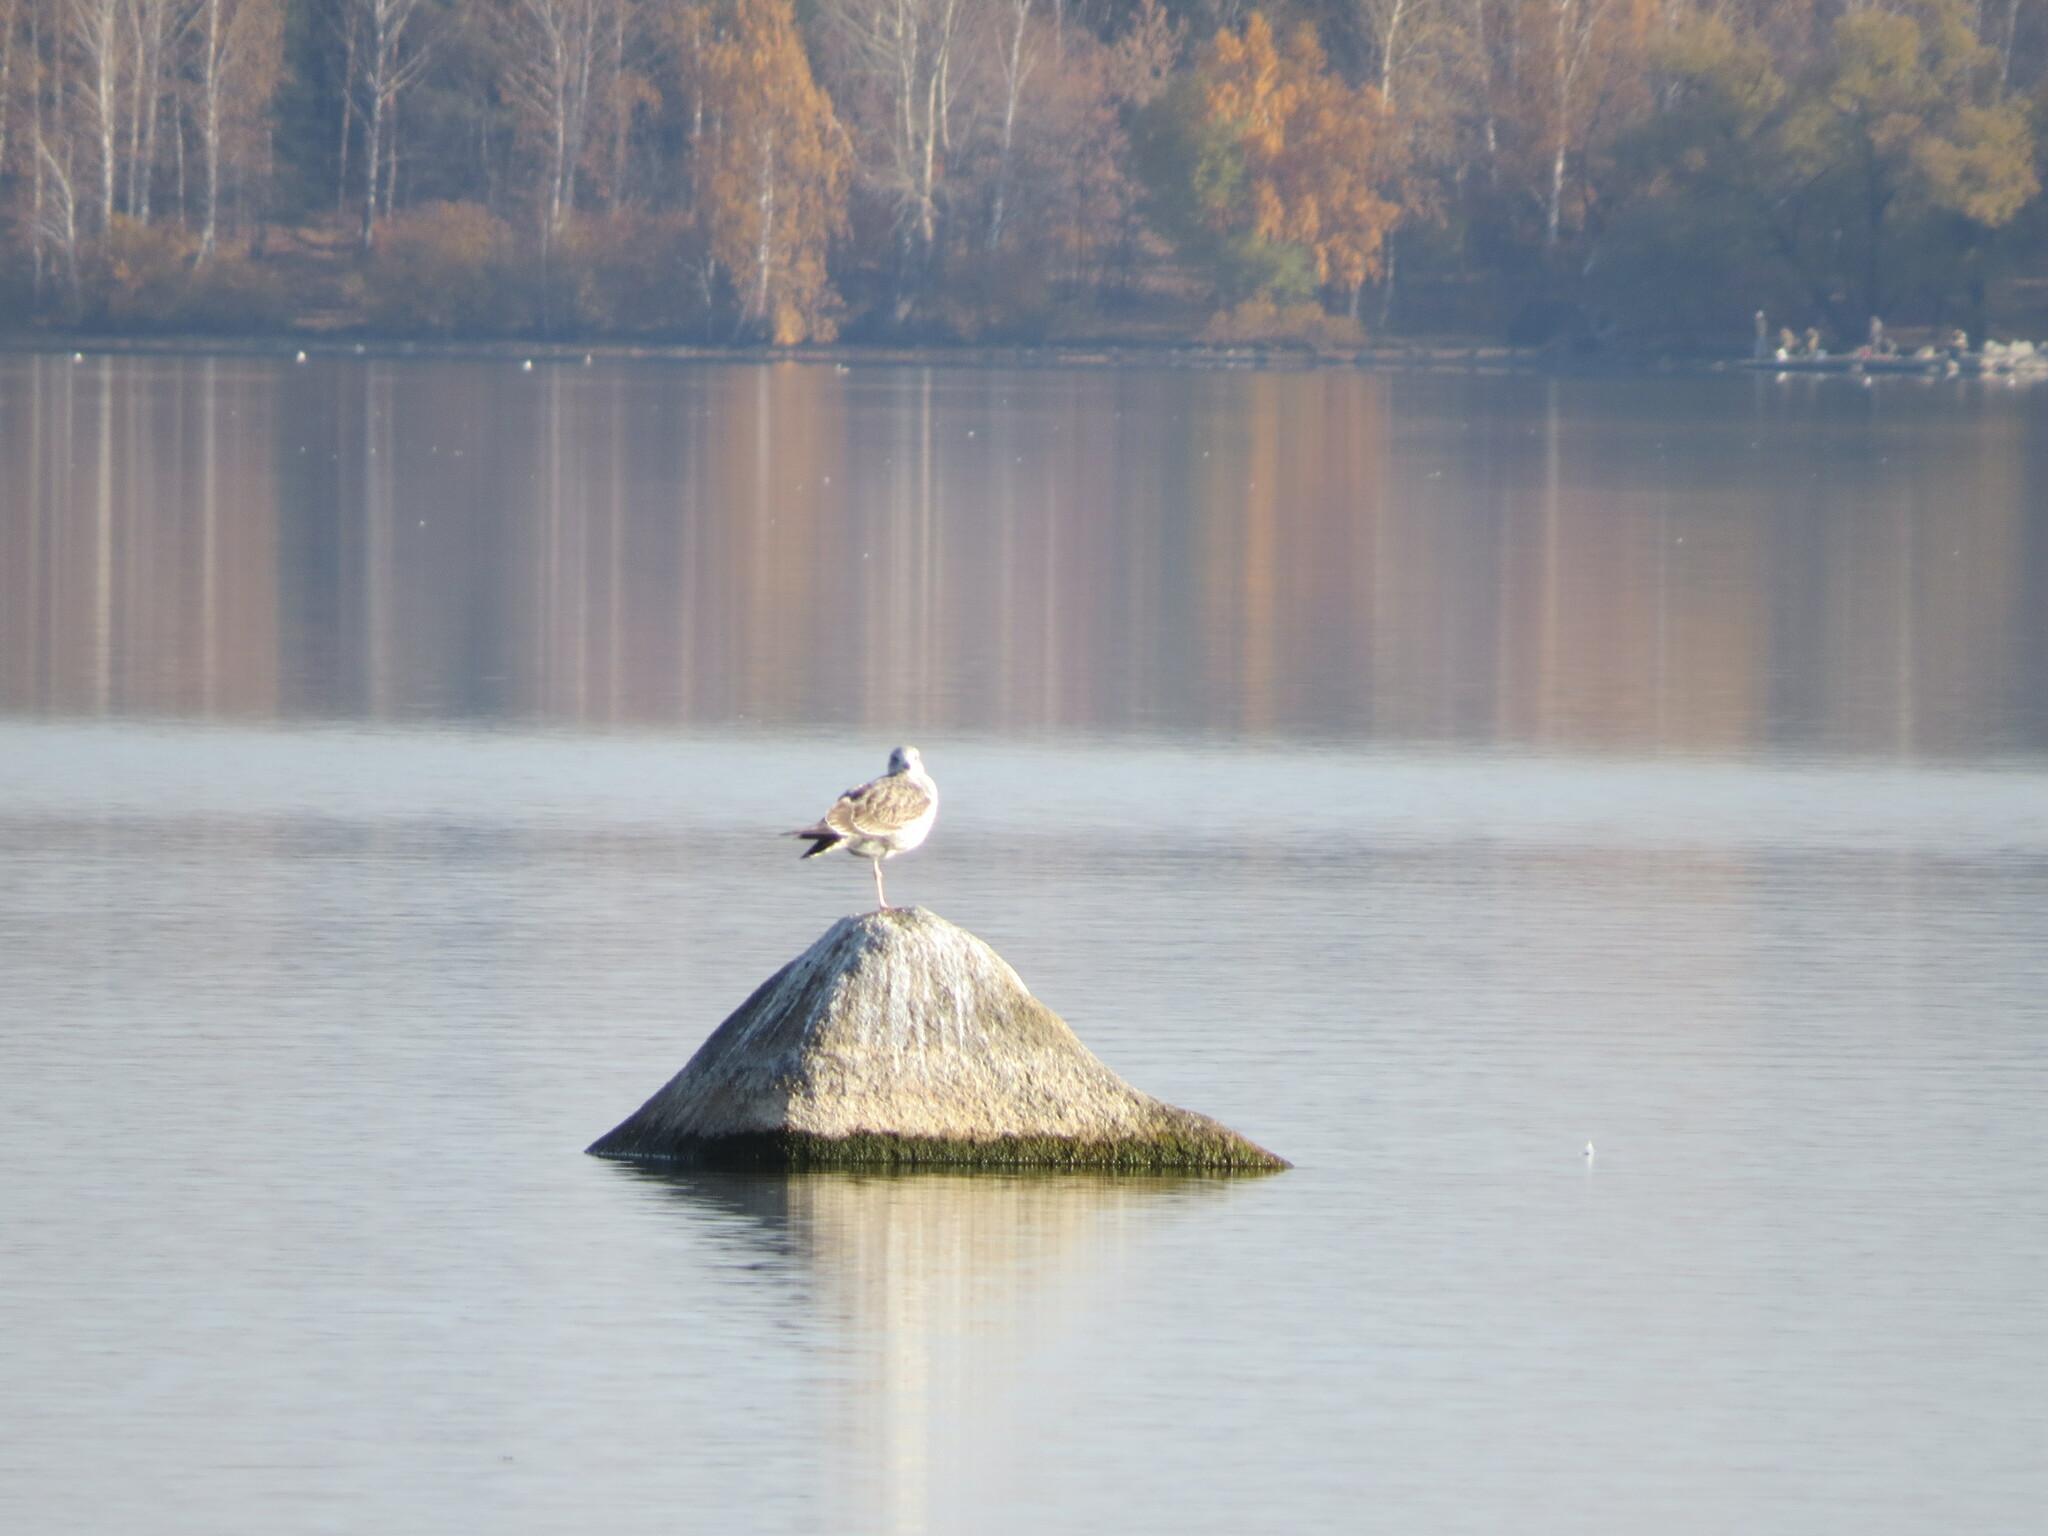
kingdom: Animalia
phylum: Chordata
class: Aves
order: Charadriiformes
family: Laridae
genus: Larus
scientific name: Larus fuscus
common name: Lesser black-backed gull
